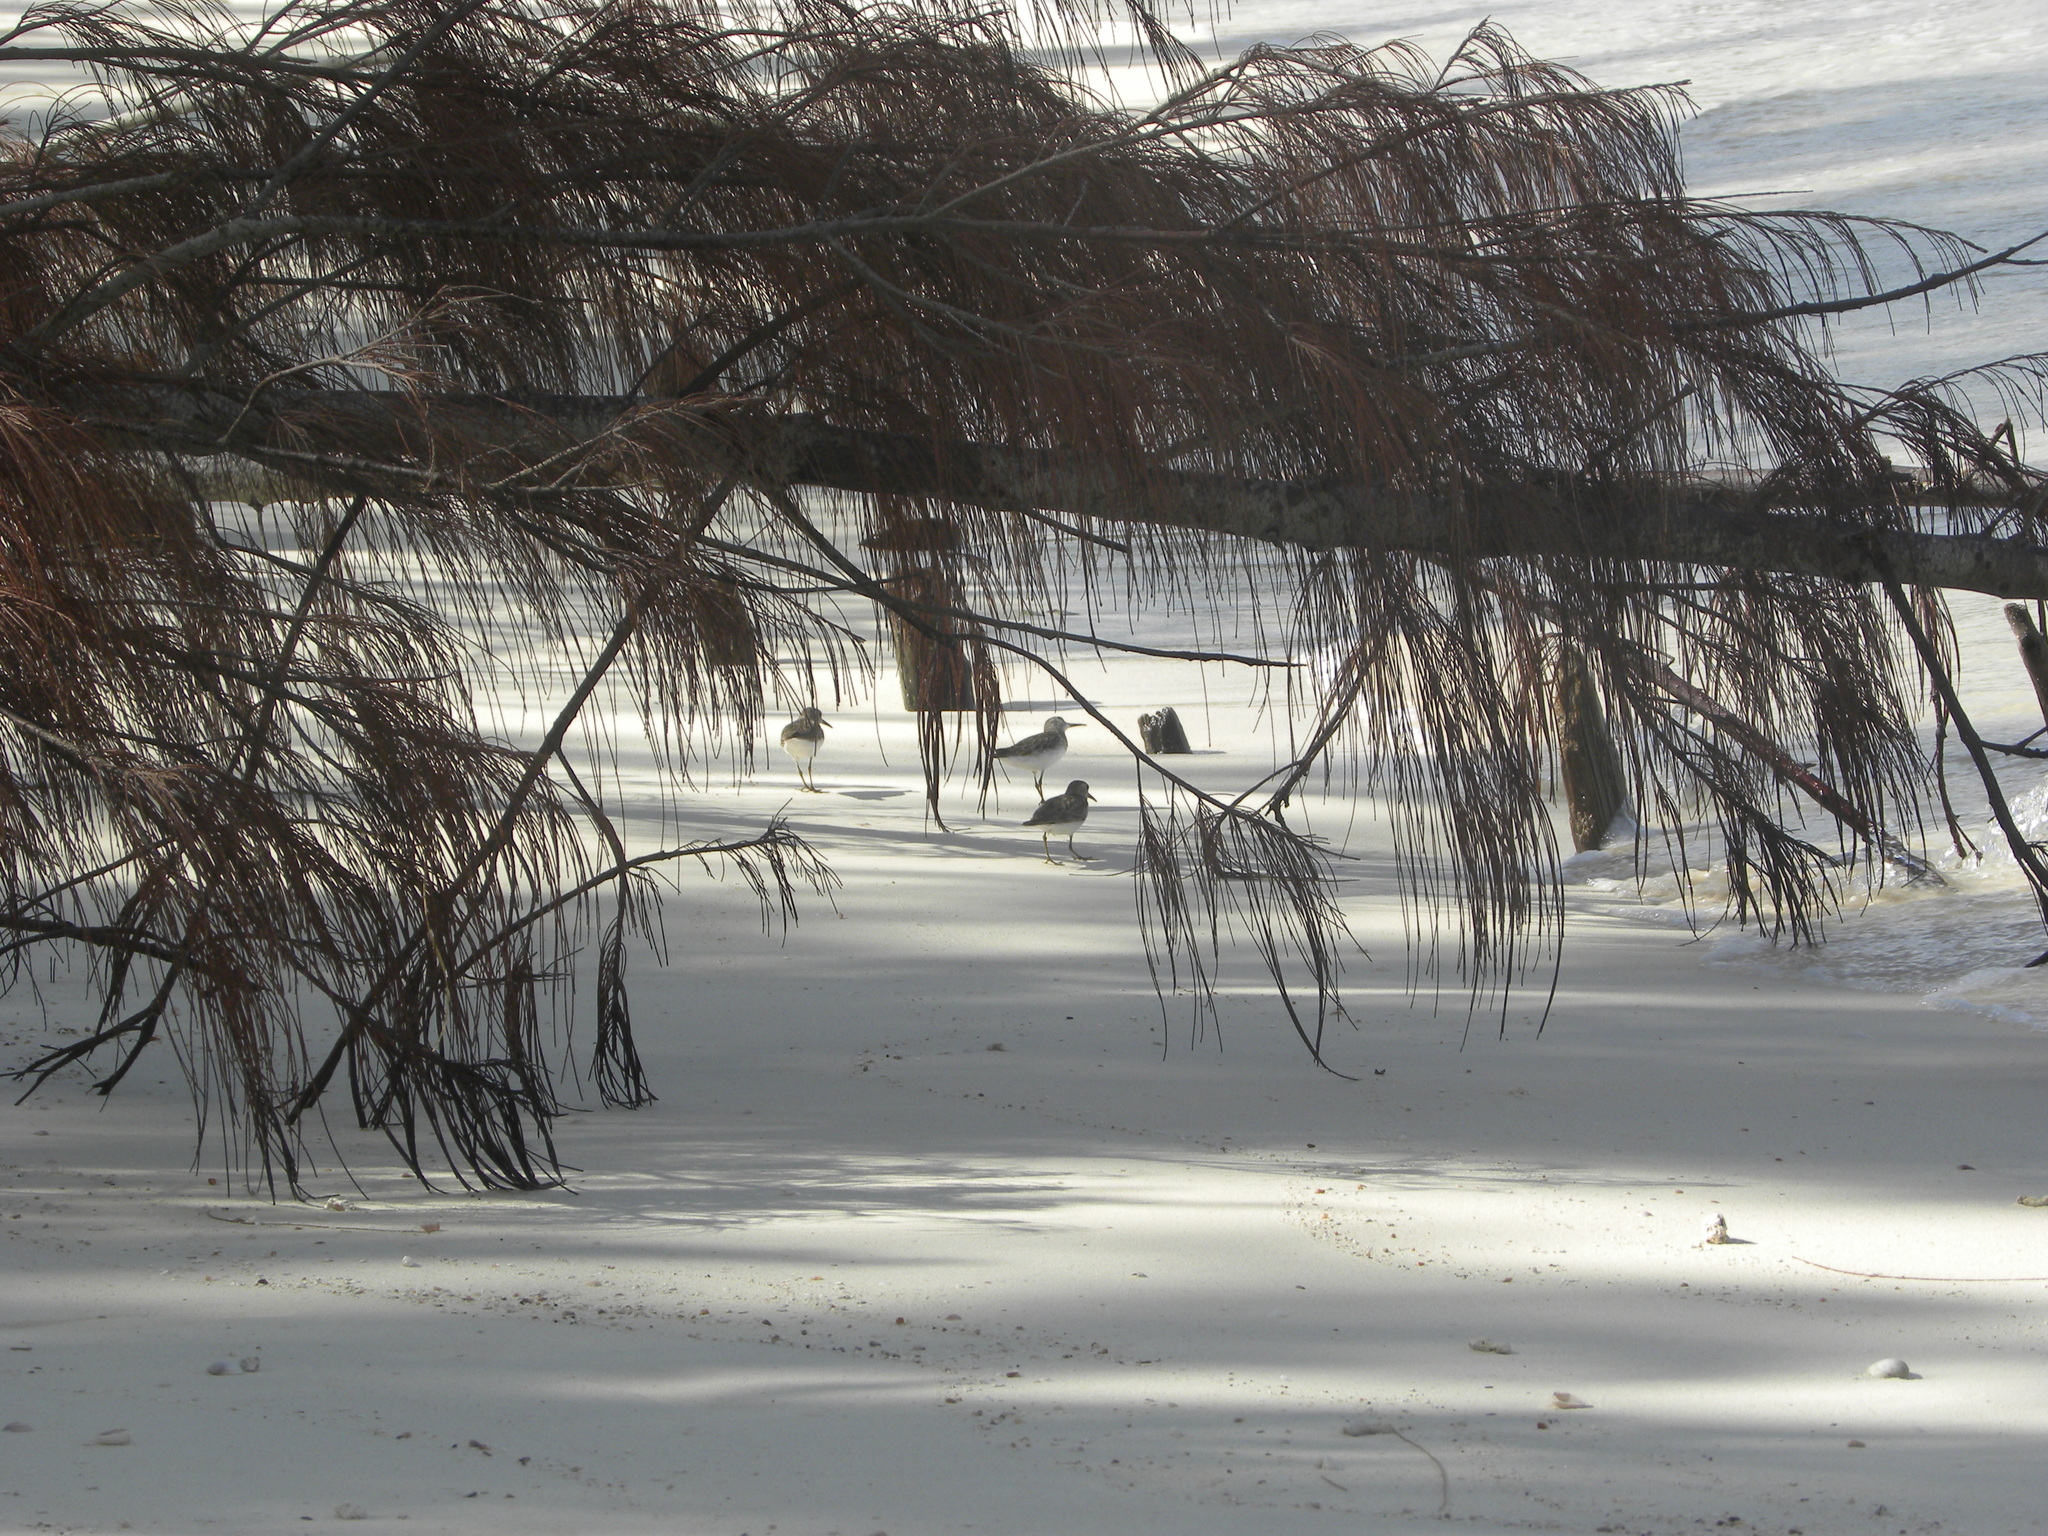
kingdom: Animalia
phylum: Chordata
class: Aves
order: Charadriiformes
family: Scolopacidae
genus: Calidris
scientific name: Calidris minutilla
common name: Least sandpiper
